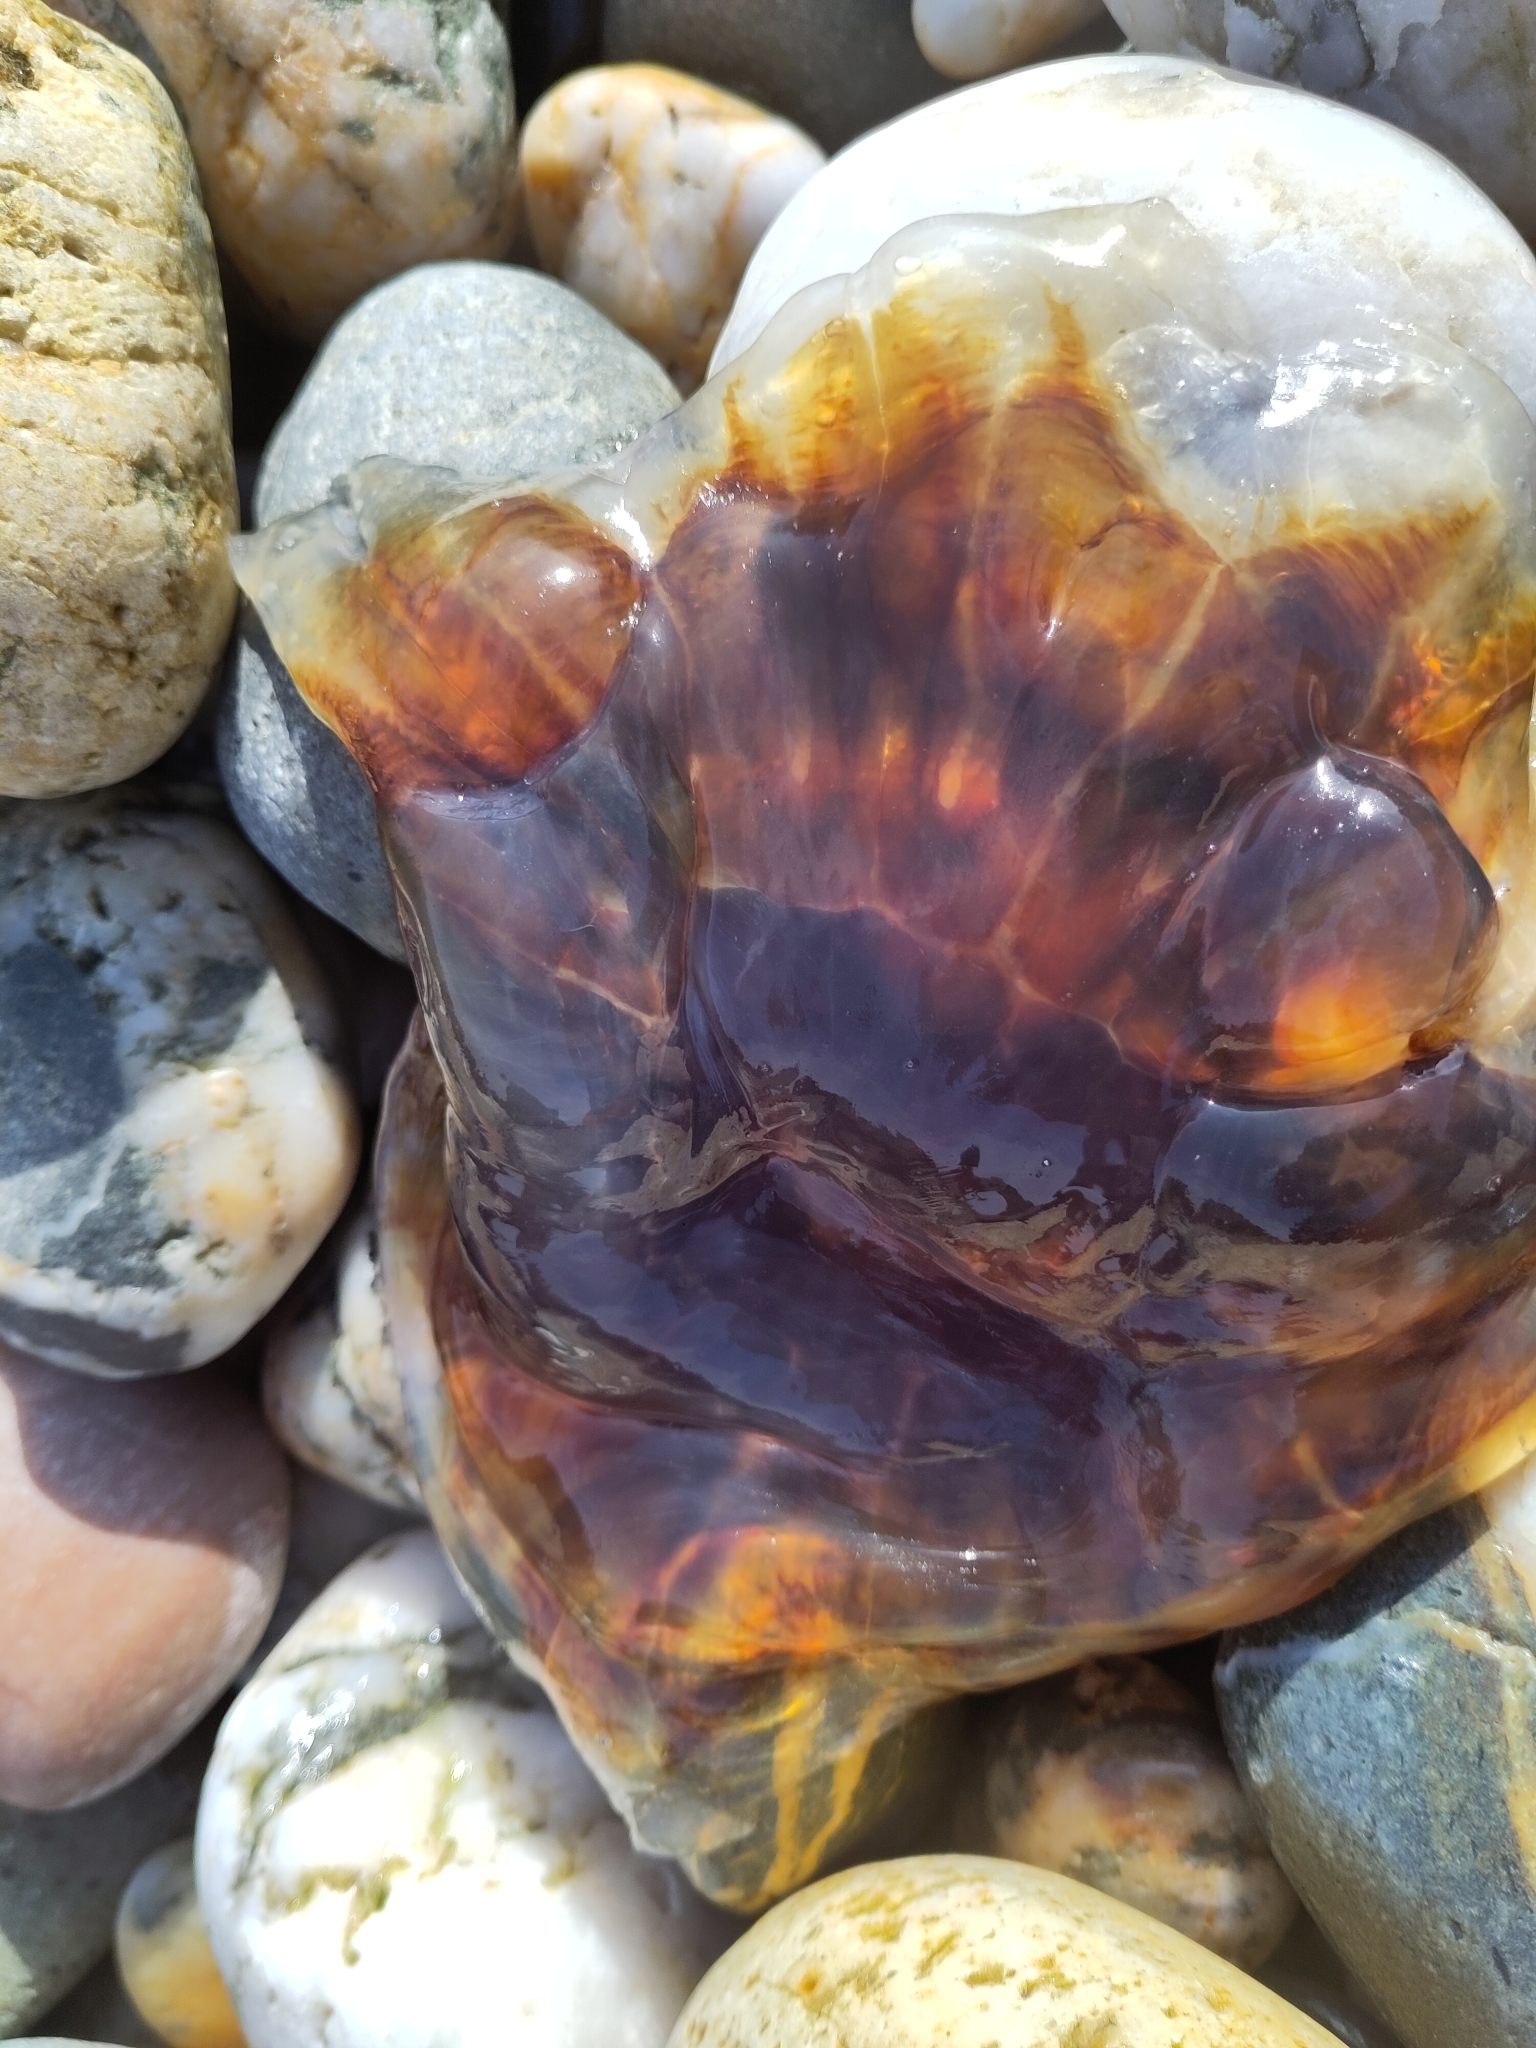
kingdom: Animalia
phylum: Cnidaria
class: Scyphozoa
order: Semaeostomeae
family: Cyaneidae
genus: Cyanea
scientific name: Cyanea capillata
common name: Lion's mane jellyfish
